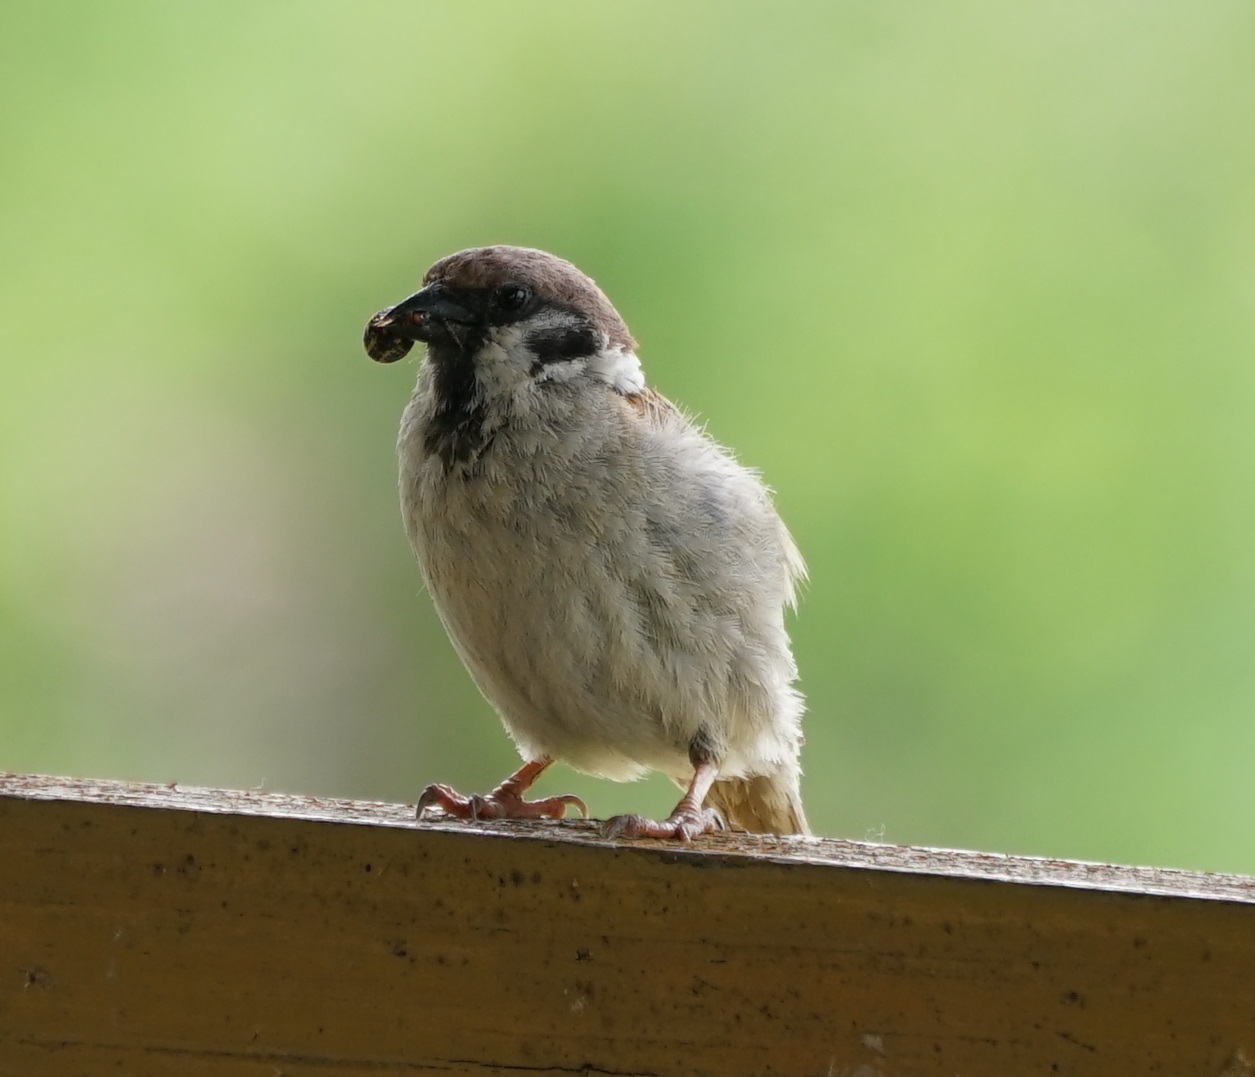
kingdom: Animalia
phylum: Chordata
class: Aves
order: Passeriformes
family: Passeridae
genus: Passer
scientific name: Passer montanus
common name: Eurasian tree sparrow
